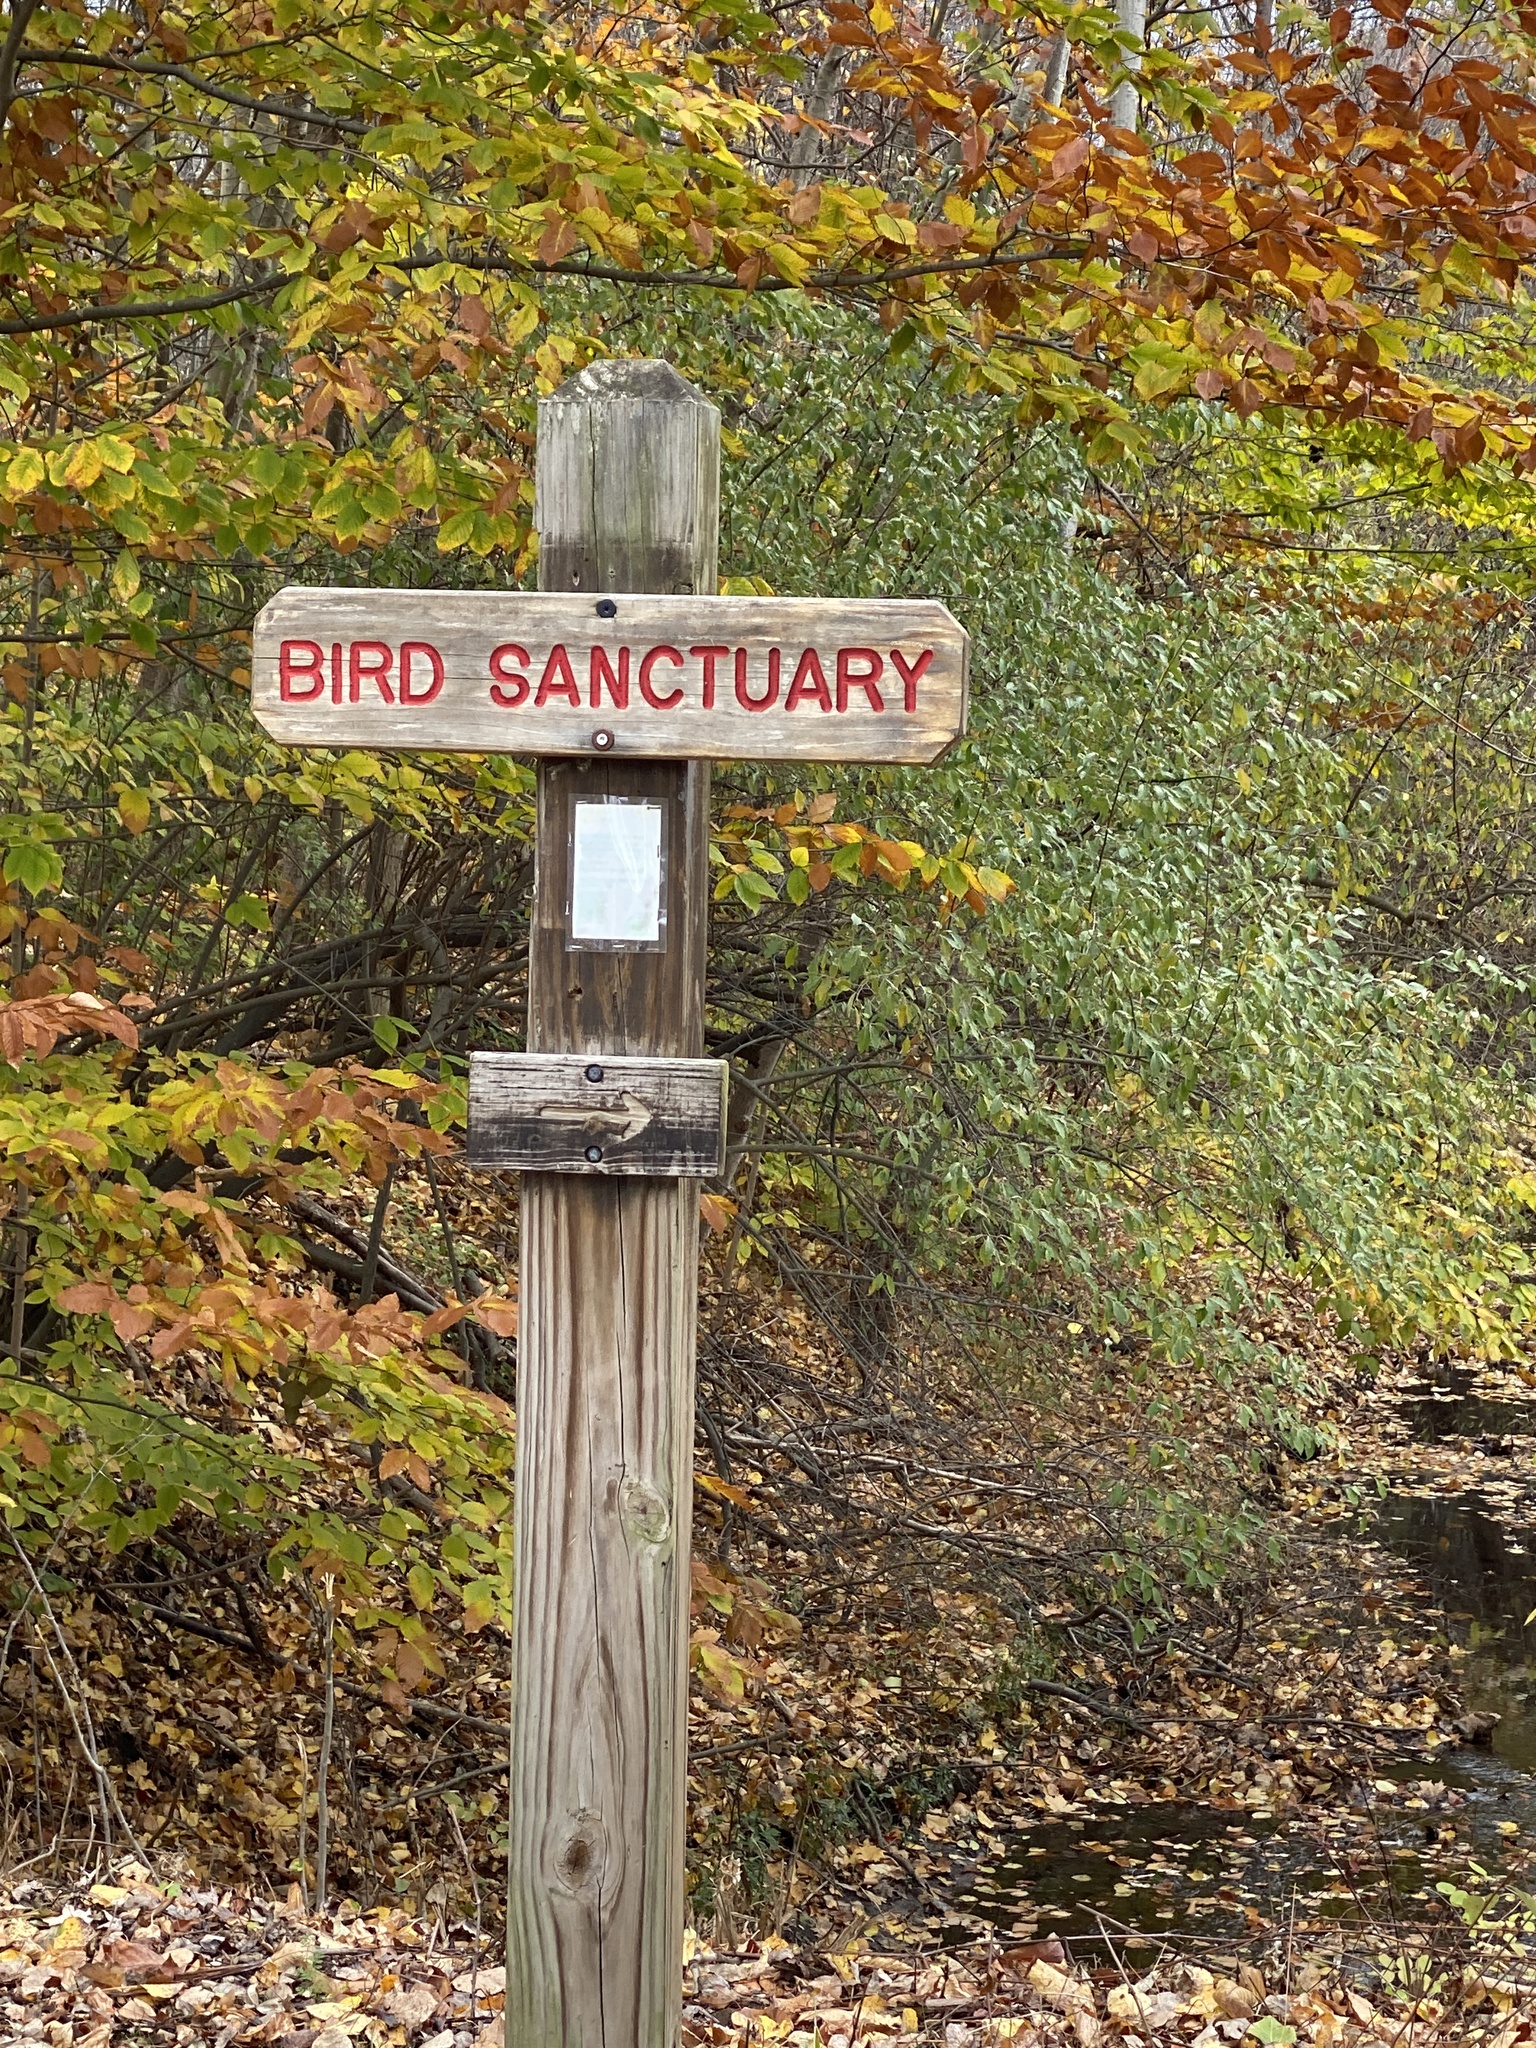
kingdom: Plantae
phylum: Tracheophyta
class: Magnoliopsida
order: Lamiales
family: Scrophulariaceae
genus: Verbascum
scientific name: Verbascum thapsus
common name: Common mullein
